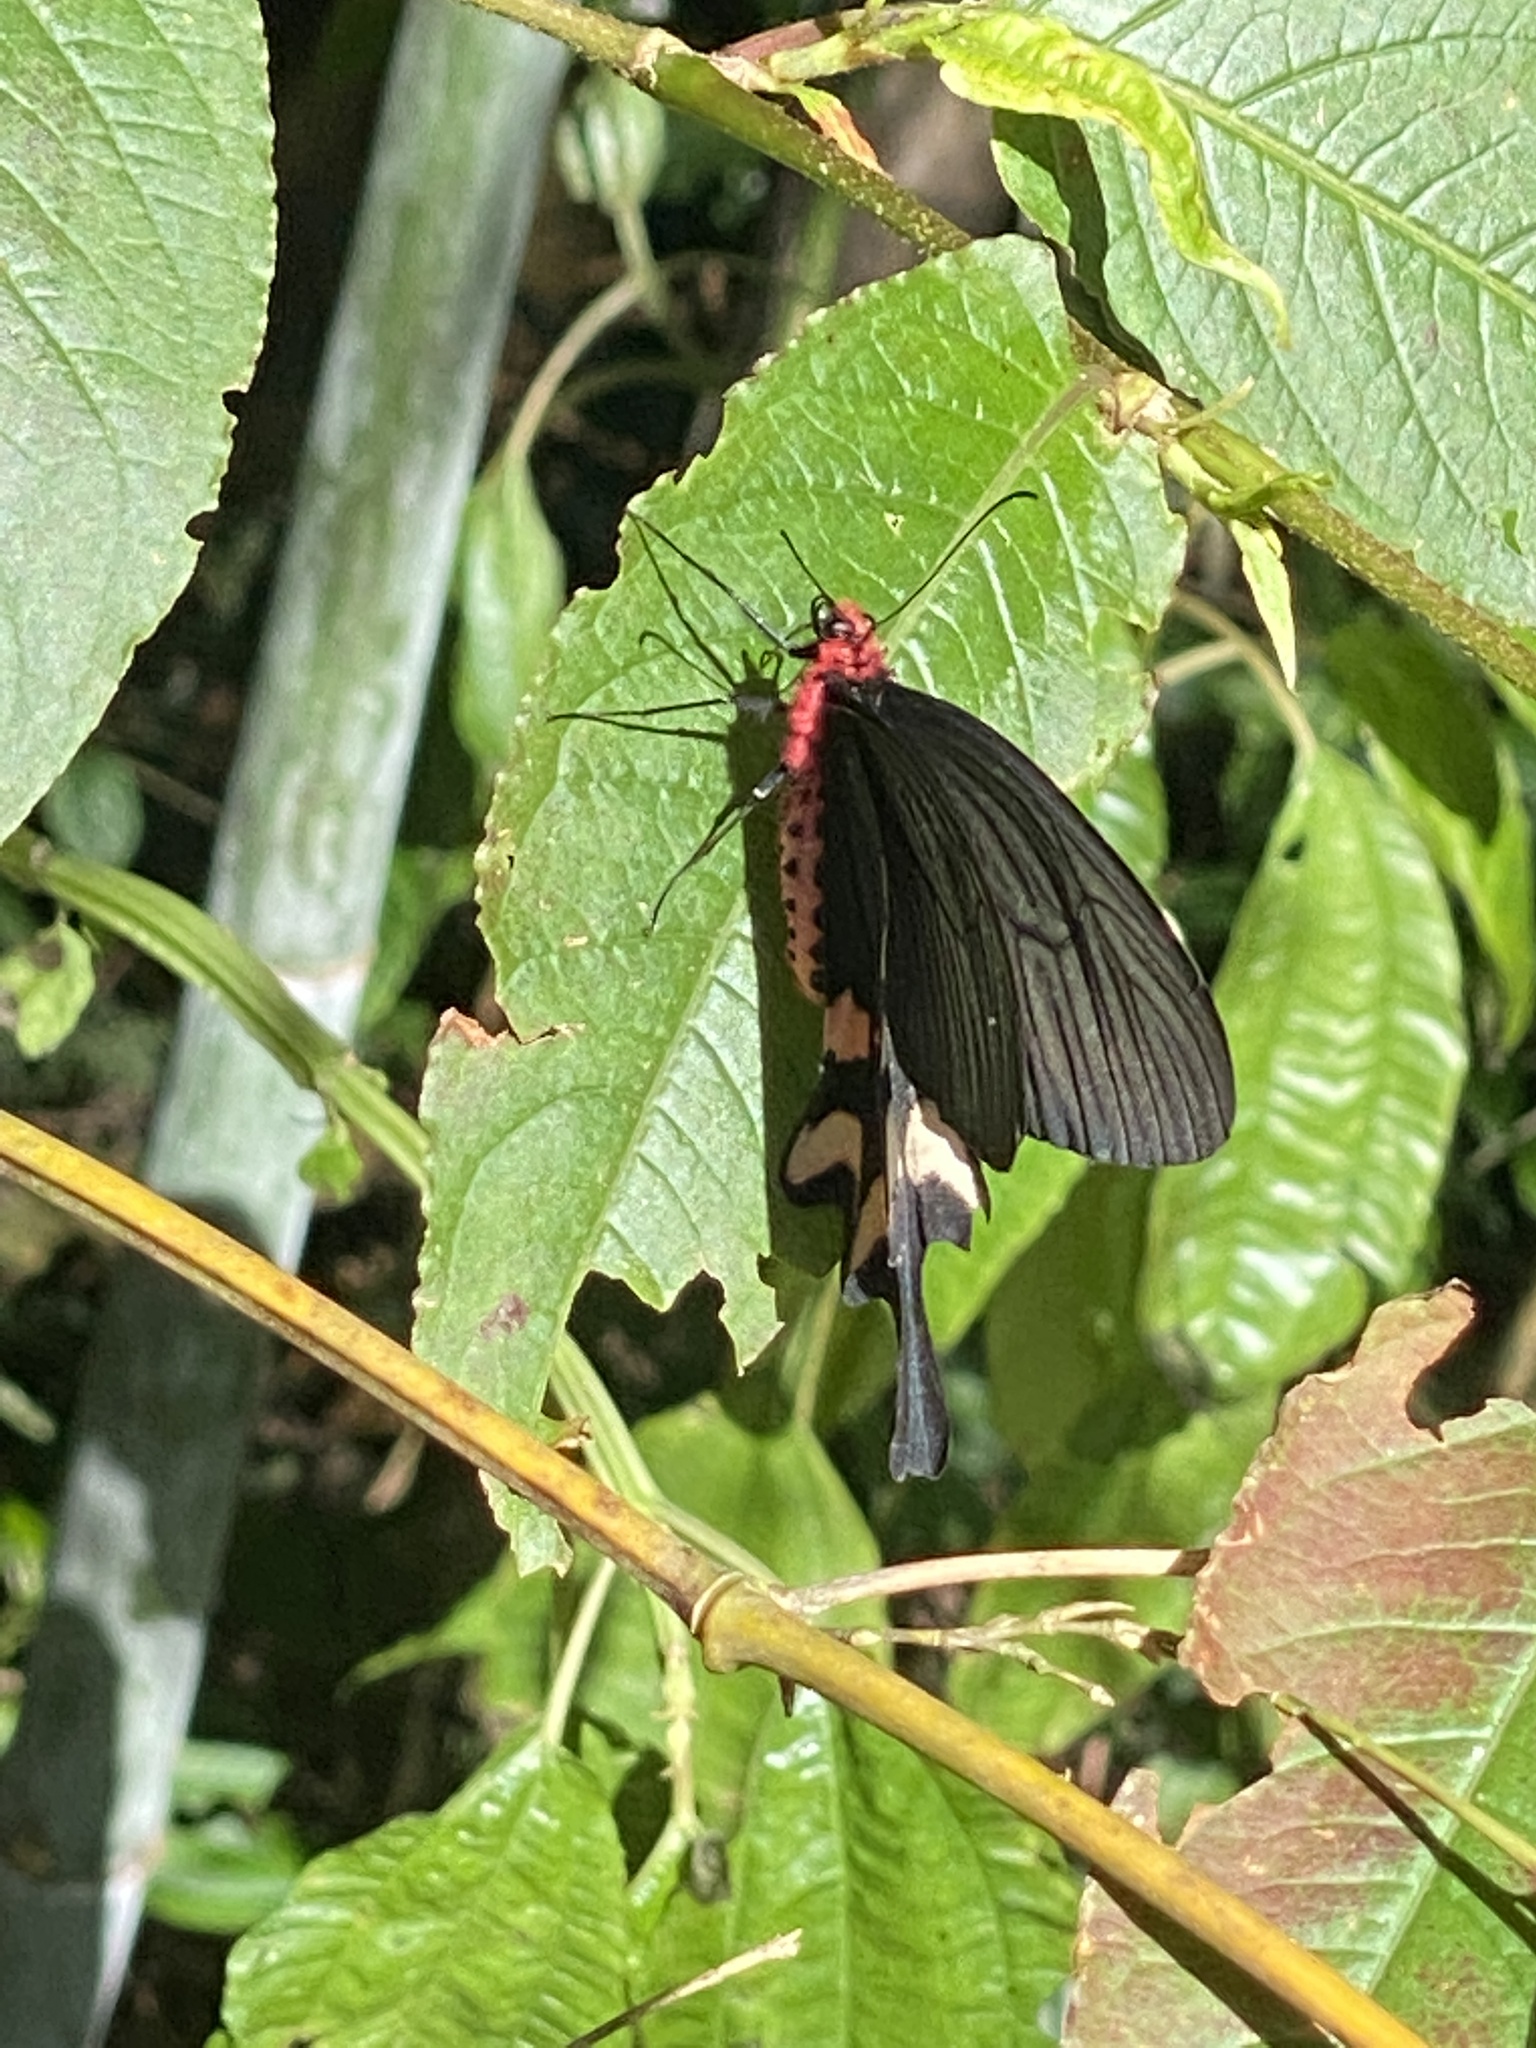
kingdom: Animalia
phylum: Arthropoda
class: Insecta
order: Lepidoptera
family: Papilionidae
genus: Byasa
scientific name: Byasa impediens
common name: Pink-spotted windmill
